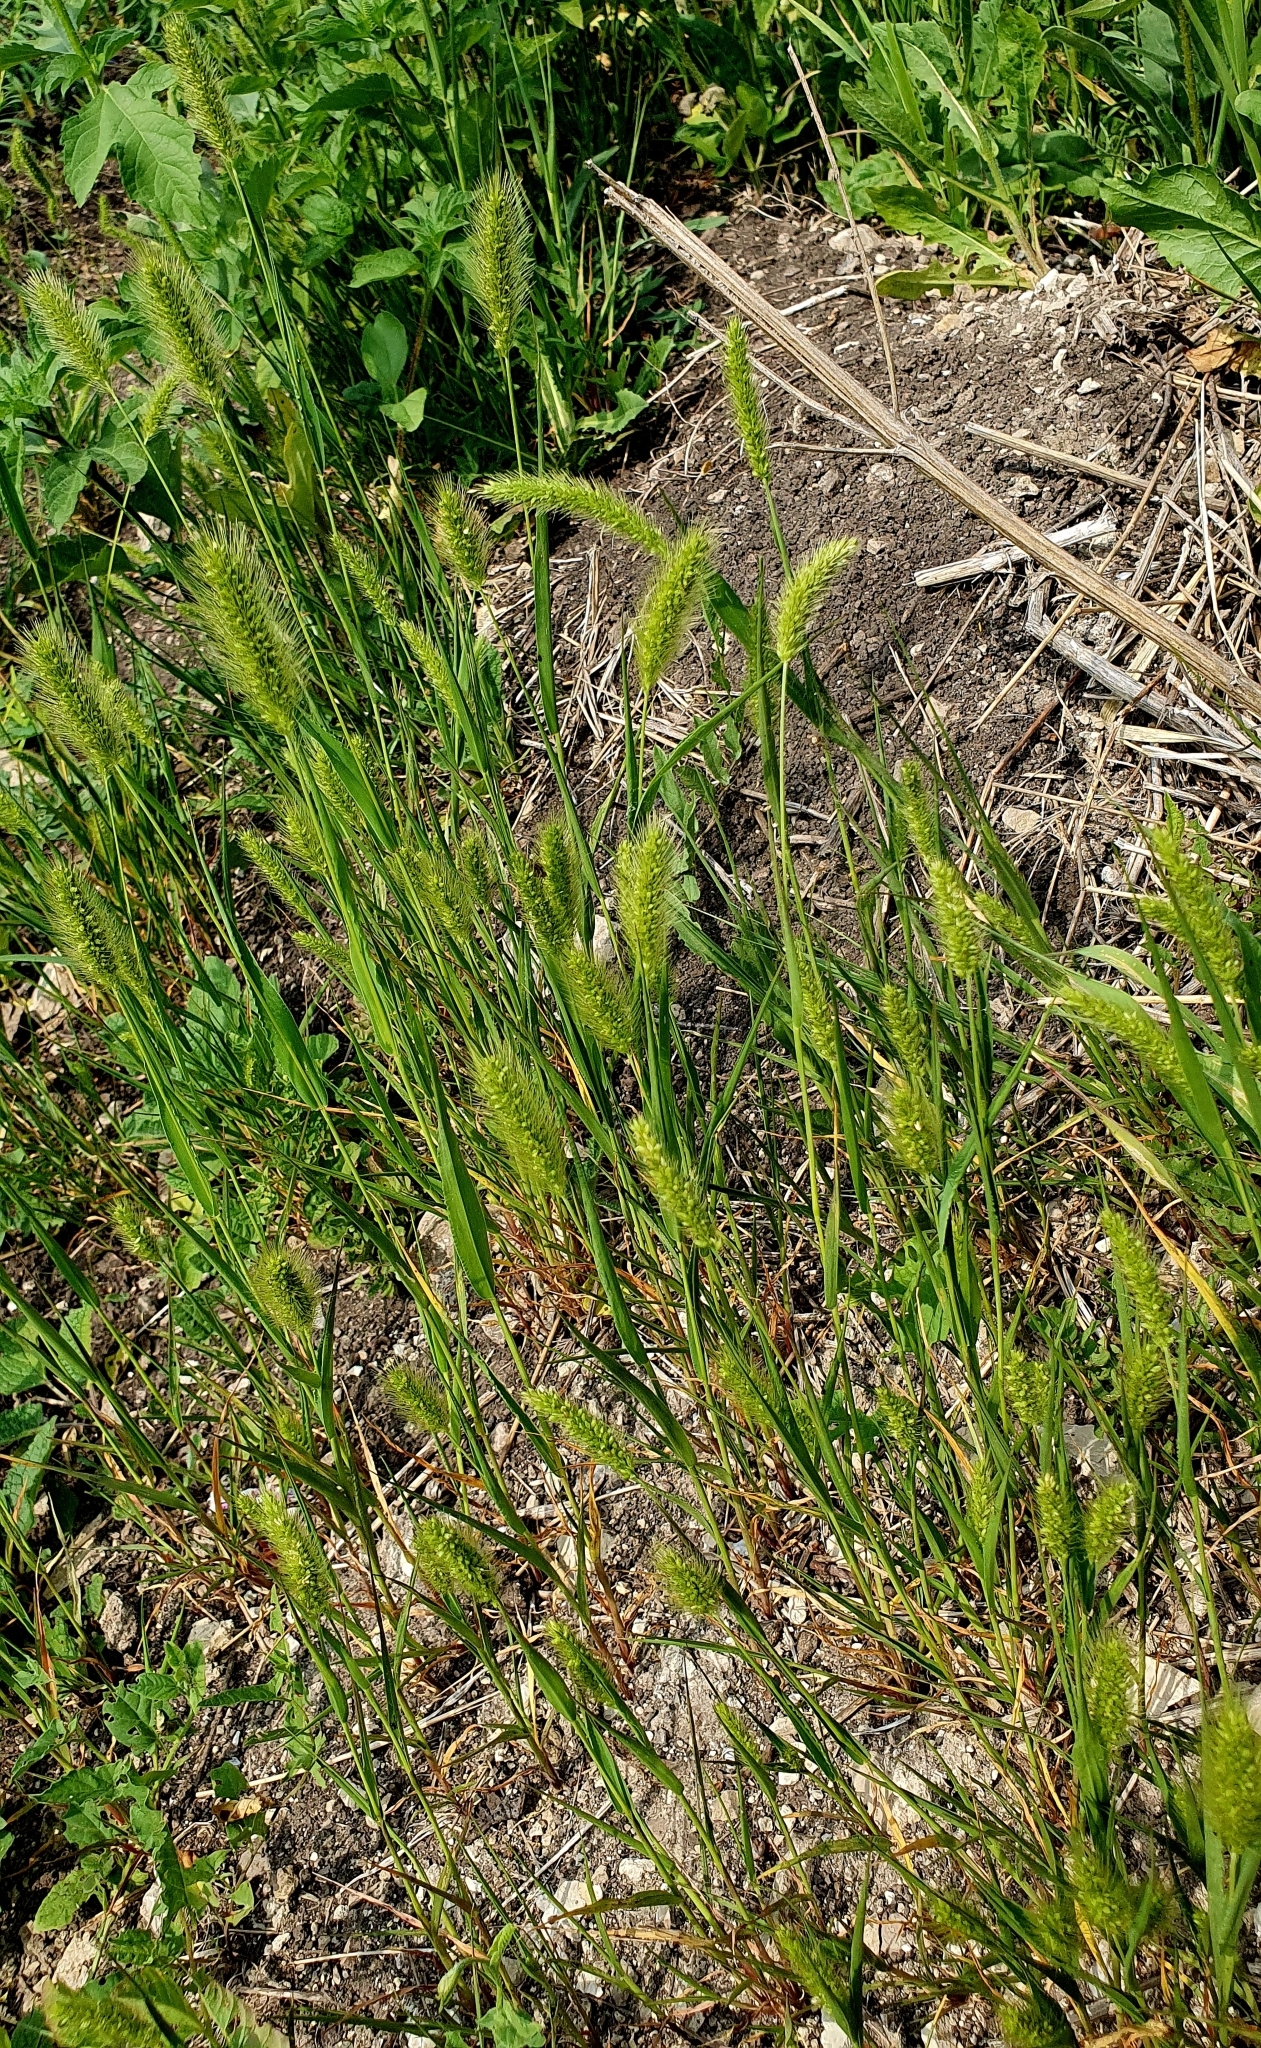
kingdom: Plantae
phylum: Tracheophyta
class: Liliopsida
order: Poales
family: Poaceae
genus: Setaria
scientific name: Setaria viridis
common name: Green bristlegrass
